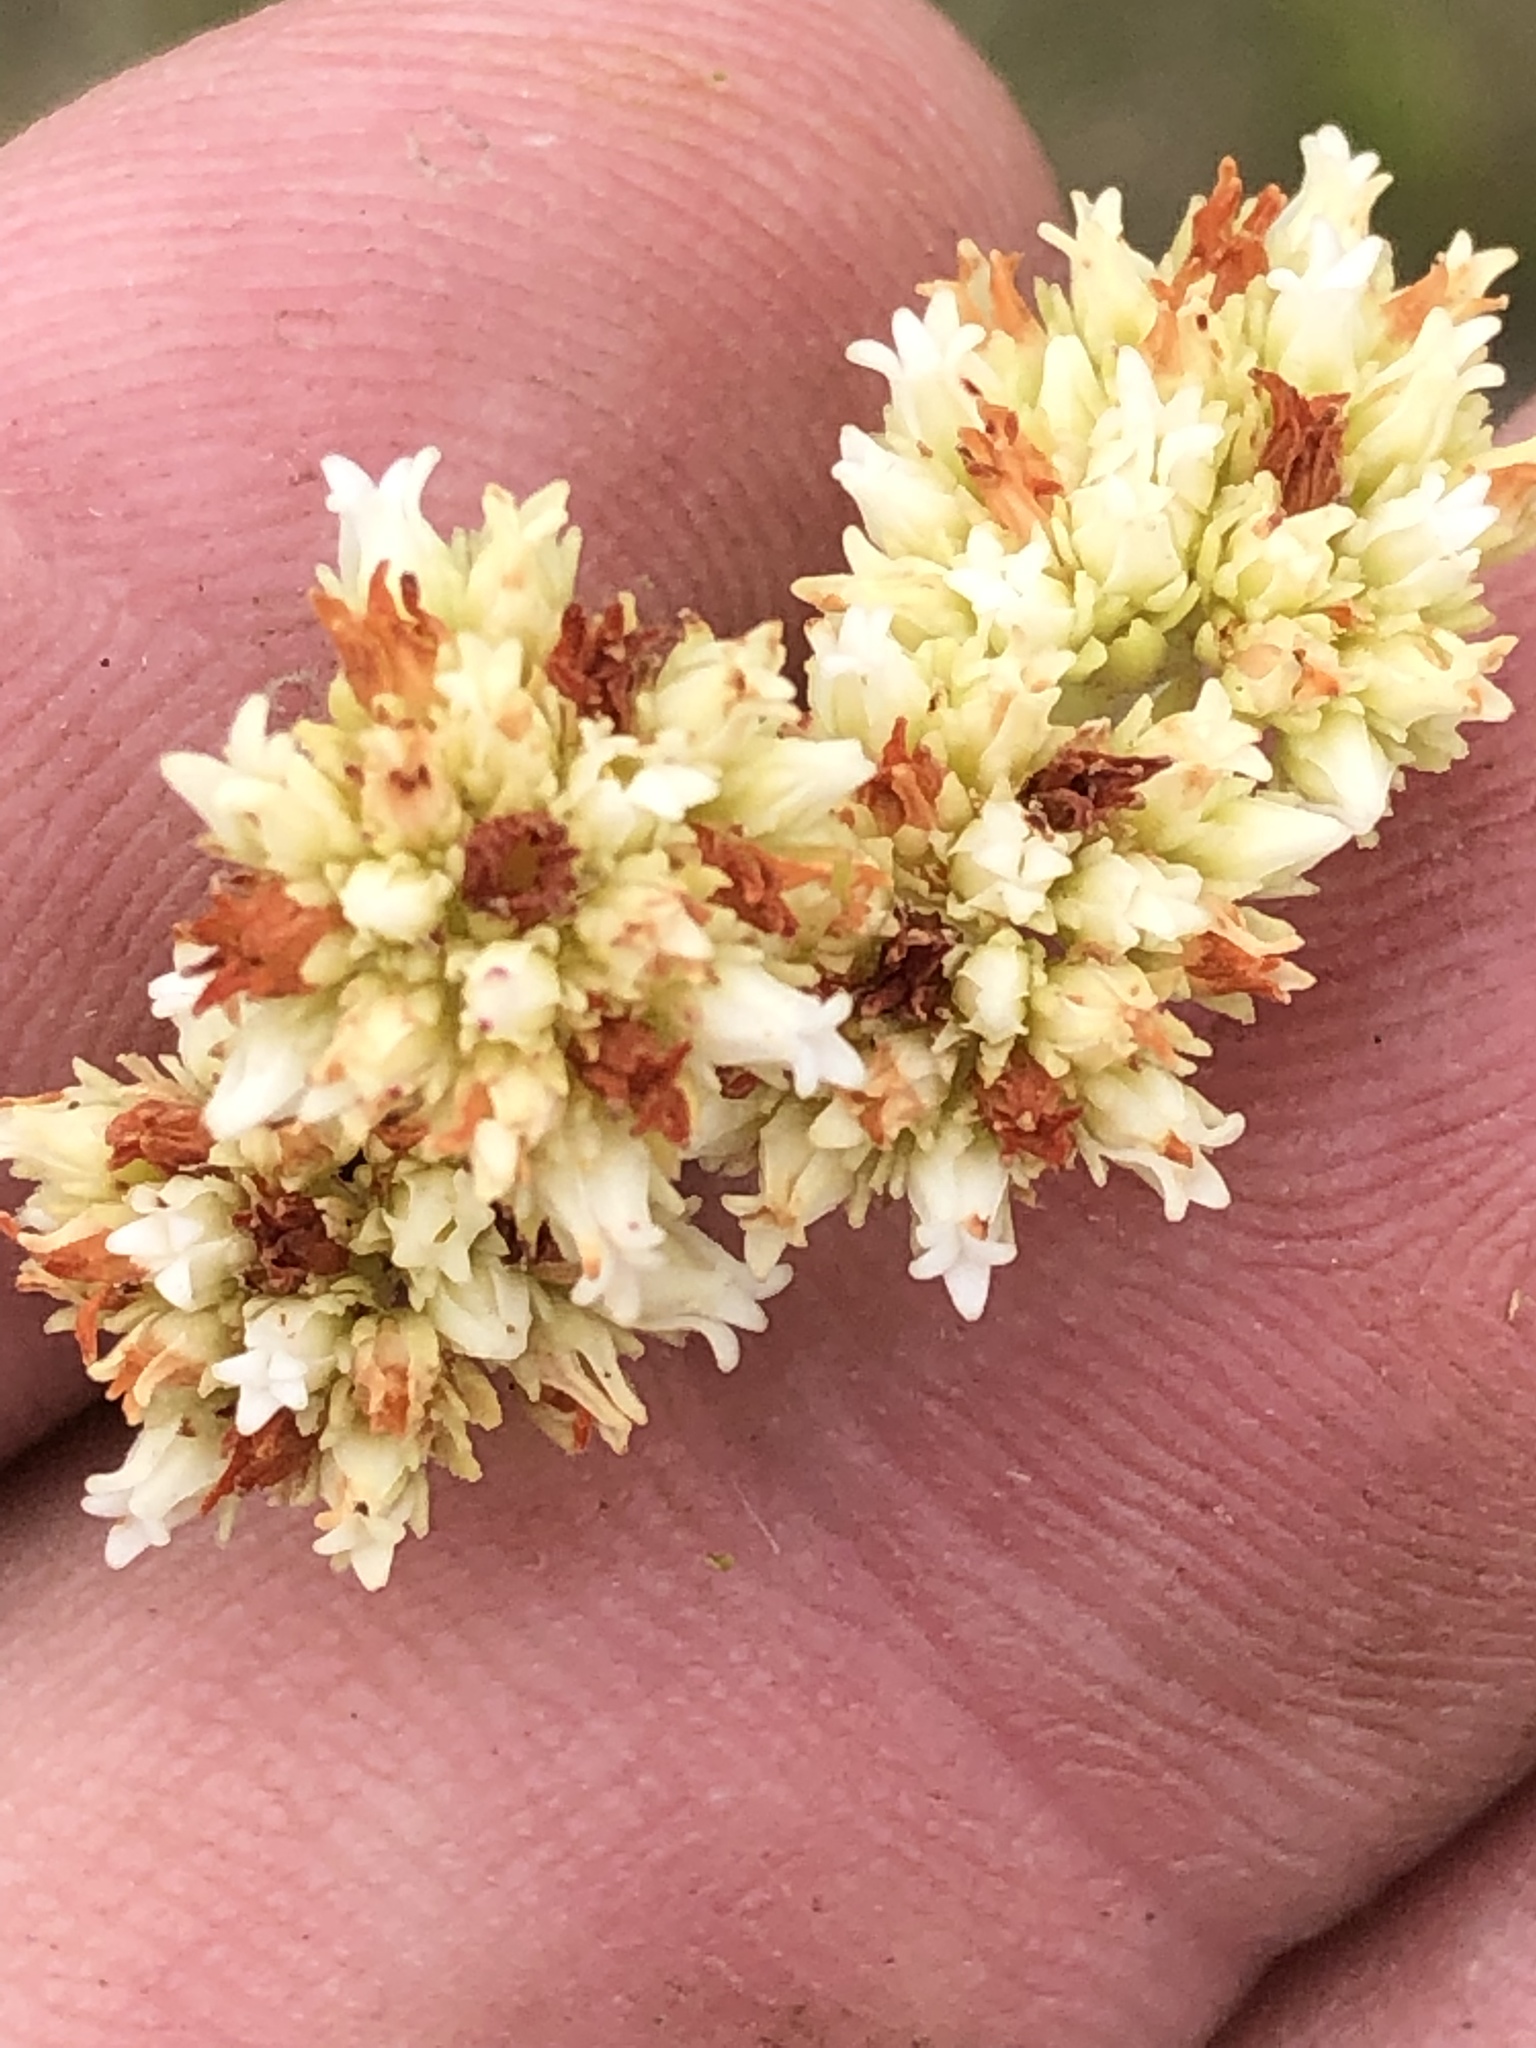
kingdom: Plantae
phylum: Tracheophyta
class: Magnoliopsida
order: Saxifragales
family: Crassulaceae
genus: Crassula
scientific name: Crassula subulata
